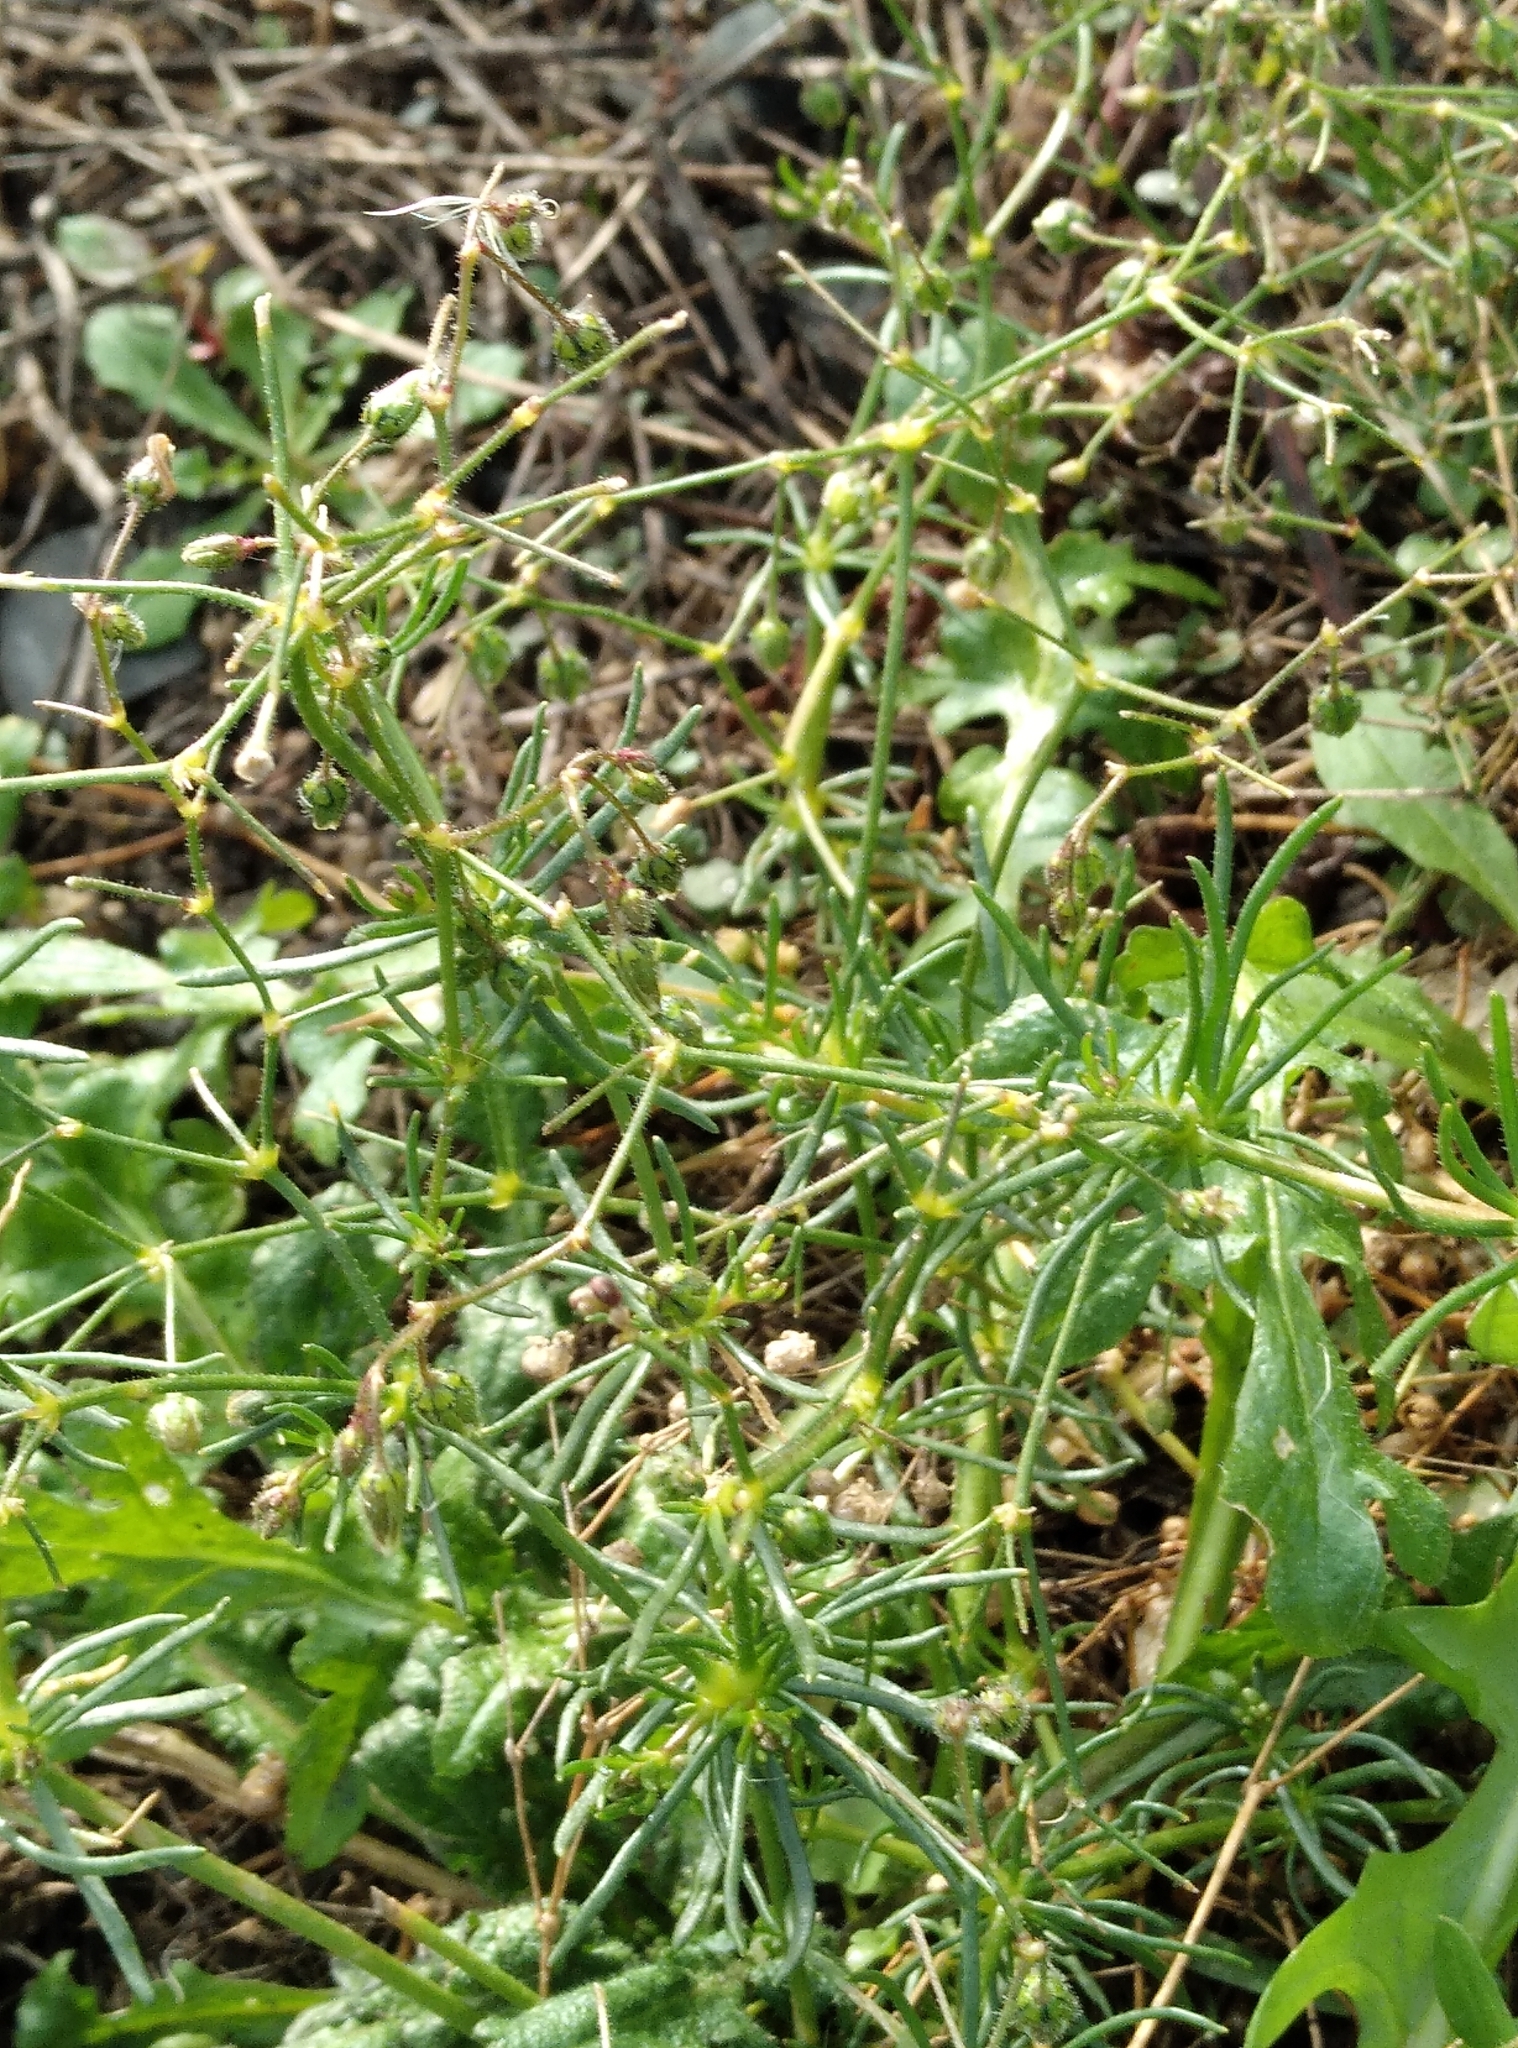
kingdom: Plantae
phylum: Tracheophyta
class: Magnoliopsida
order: Caryophyllales
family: Caryophyllaceae
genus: Spergula
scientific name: Spergula arvensis
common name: Corn spurrey
